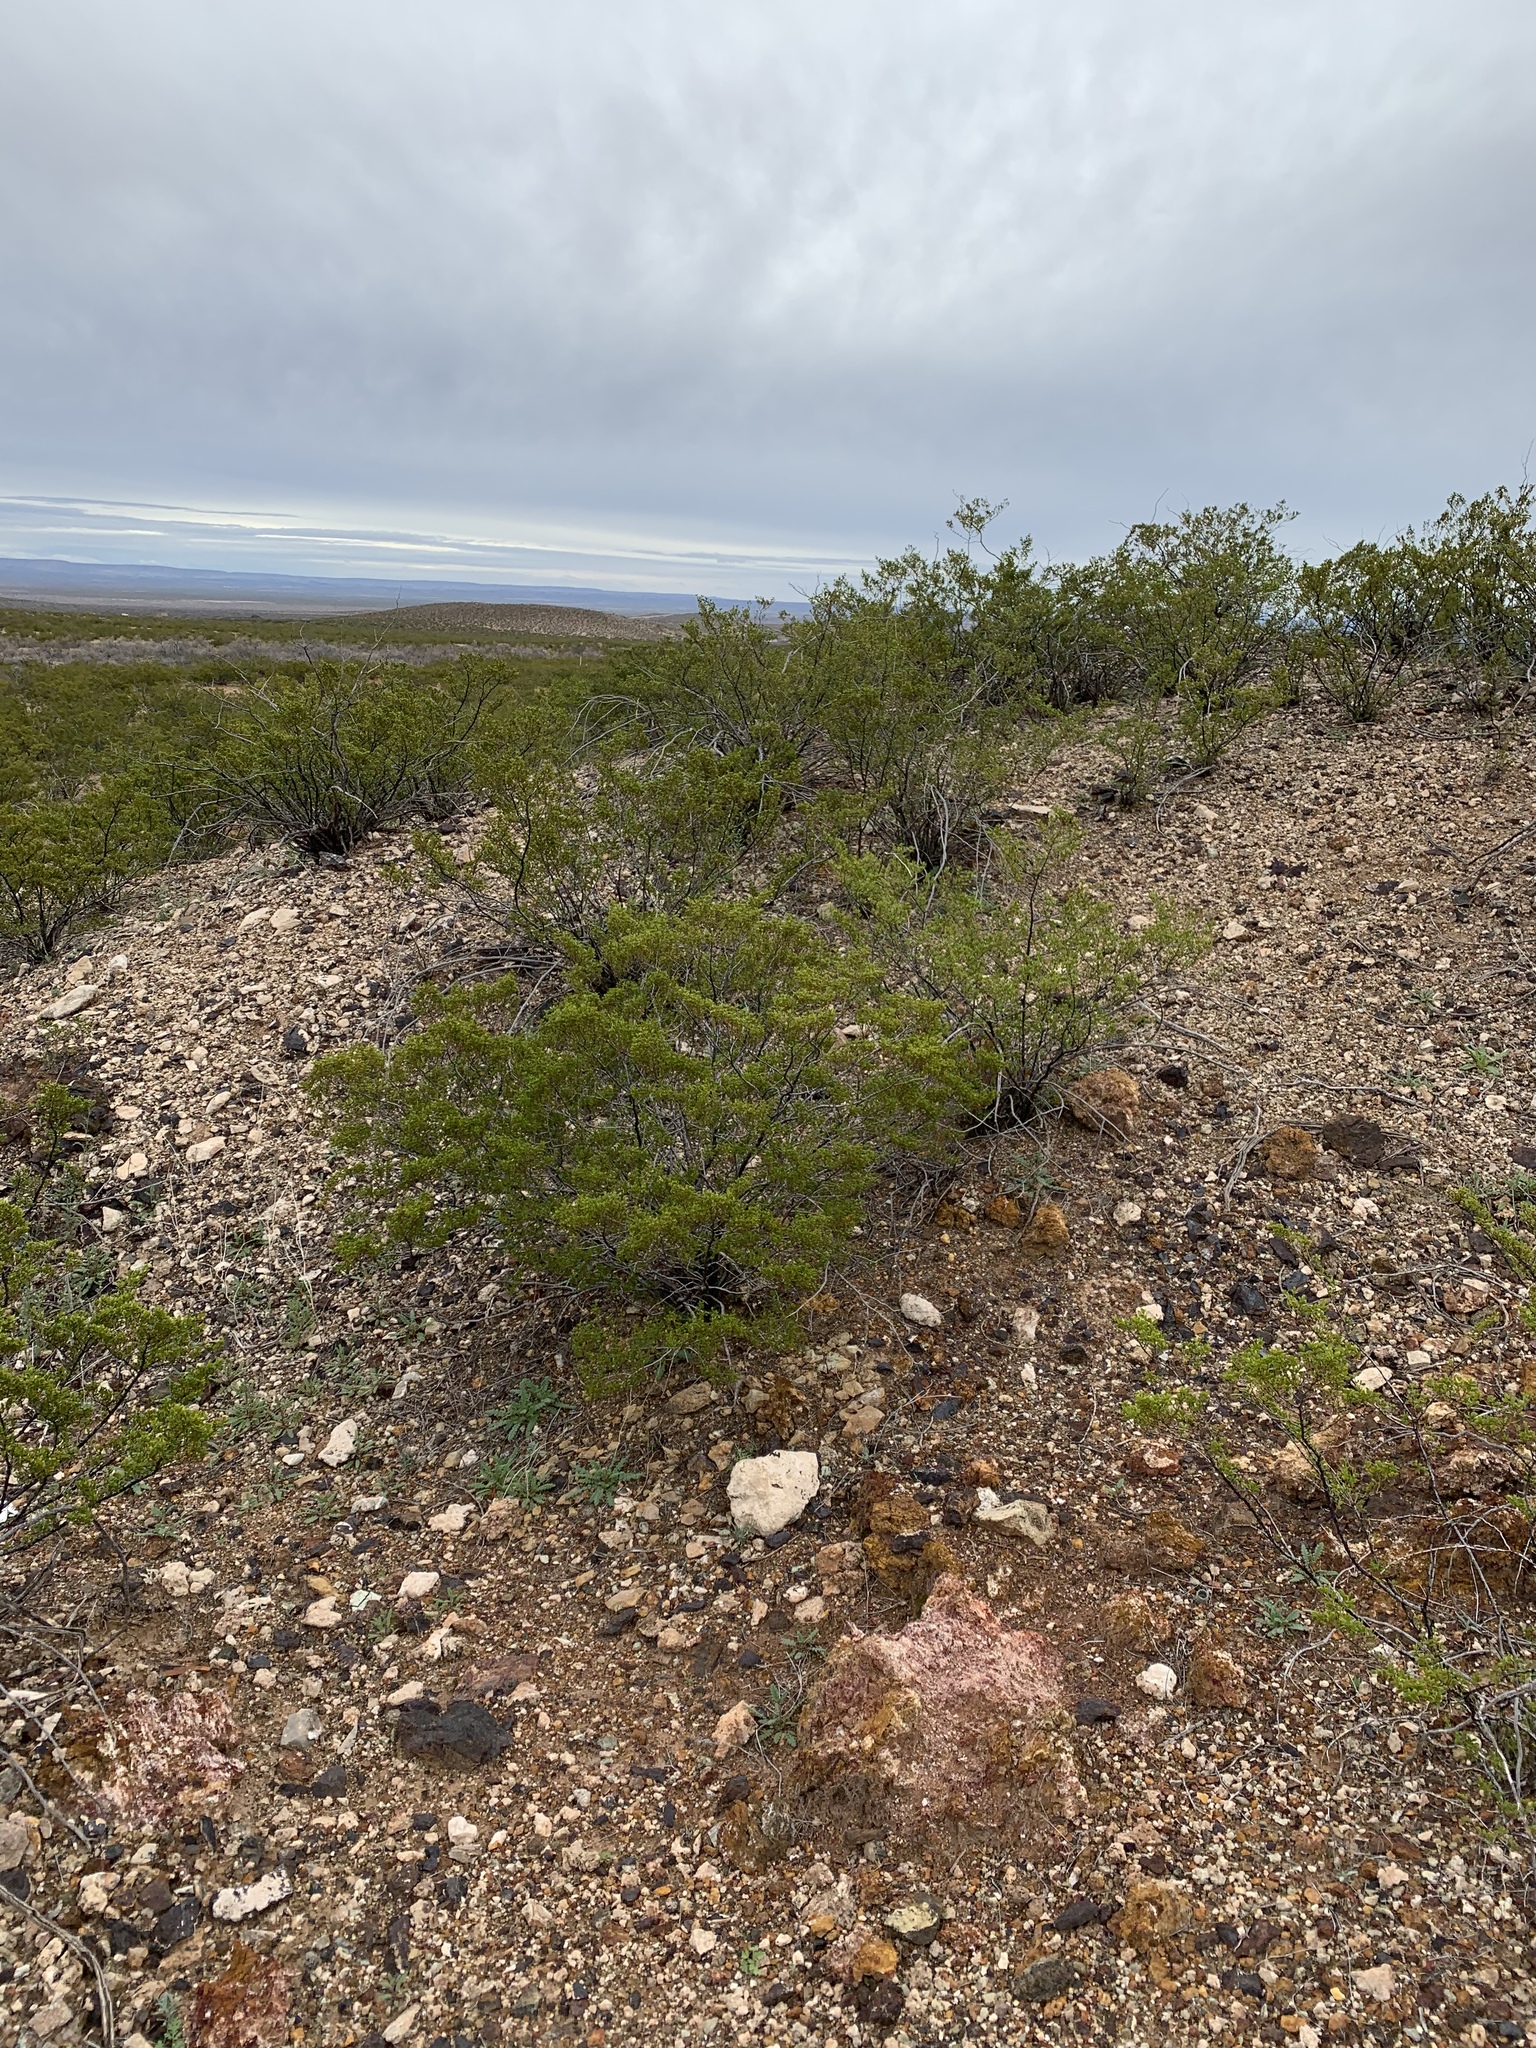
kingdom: Plantae
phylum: Tracheophyta
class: Magnoliopsida
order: Zygophyllales
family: Zygophyllaceae
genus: Larrea
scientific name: Larrea tridentata
